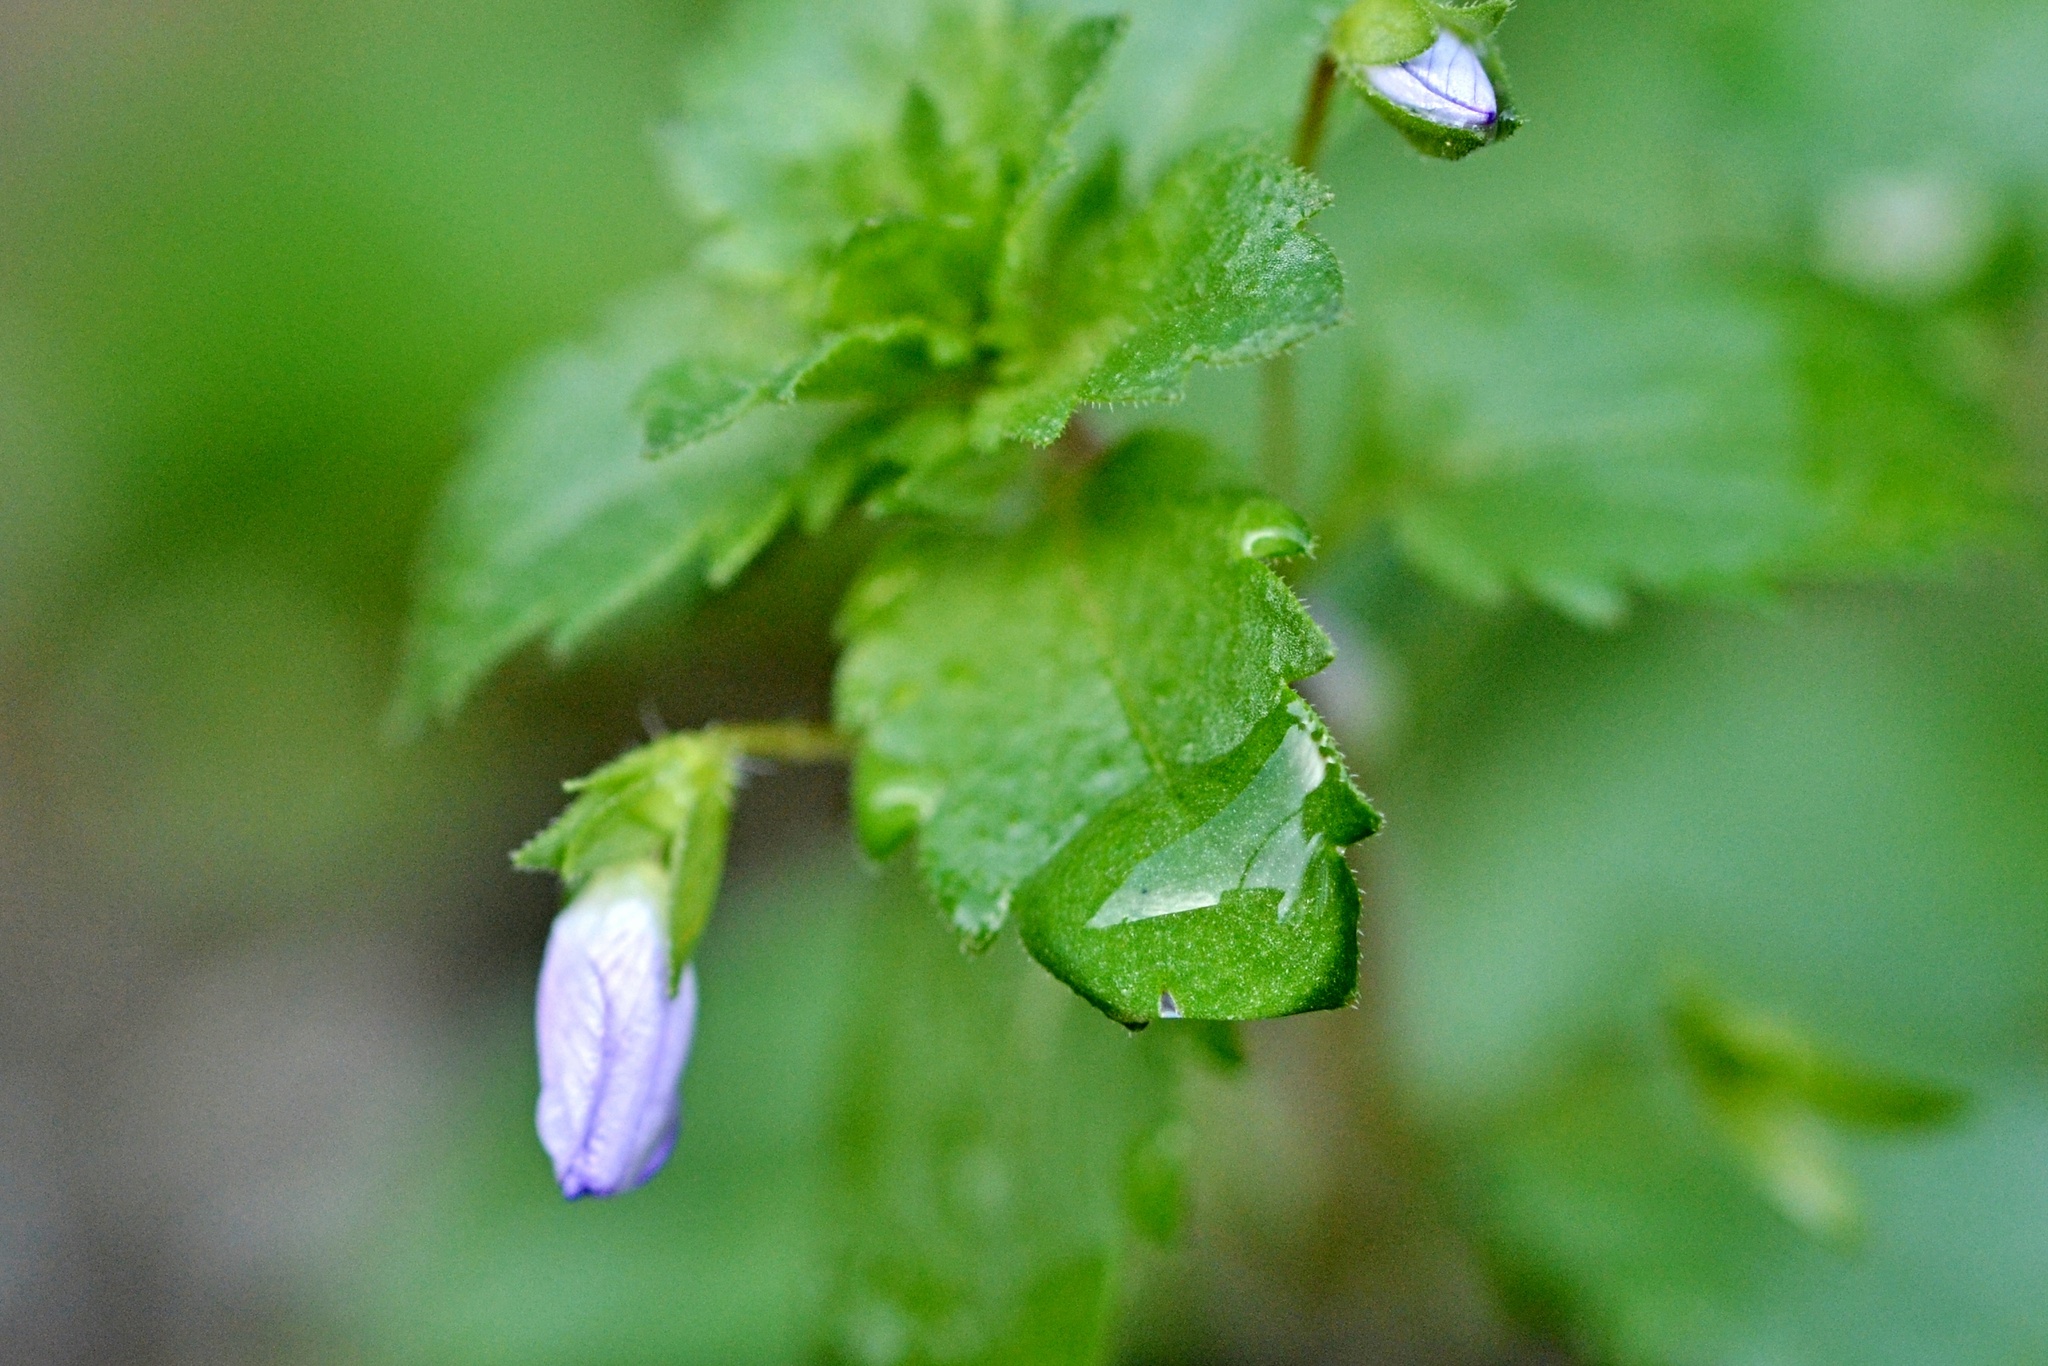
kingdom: Plantae
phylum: Tracheophyta
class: Magnoliopsida
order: Lamiales
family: Plantaginaceae
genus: Veronica
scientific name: Veronica persica
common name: Common field-speedwell
